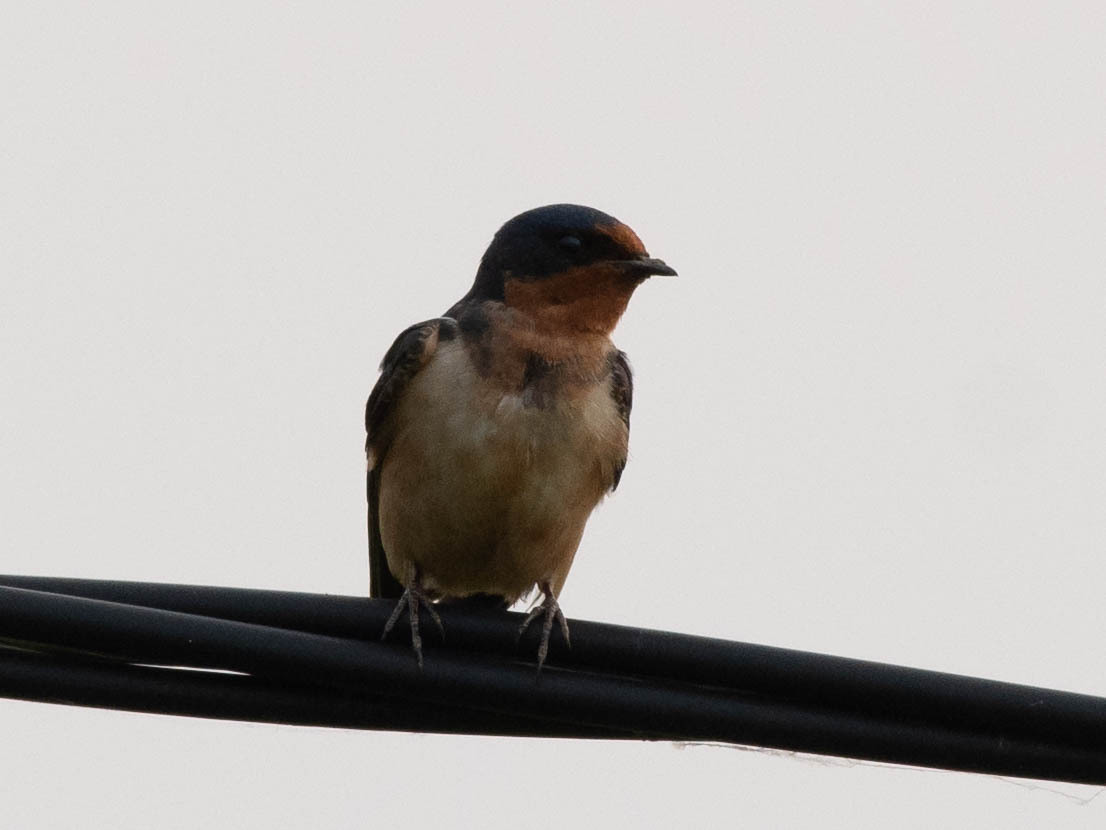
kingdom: Animalia
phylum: Chordata
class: Aves
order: Passeriformes
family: Hirundinidae
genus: Hirundo
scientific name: Hirundo rustica
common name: Barn swallow
